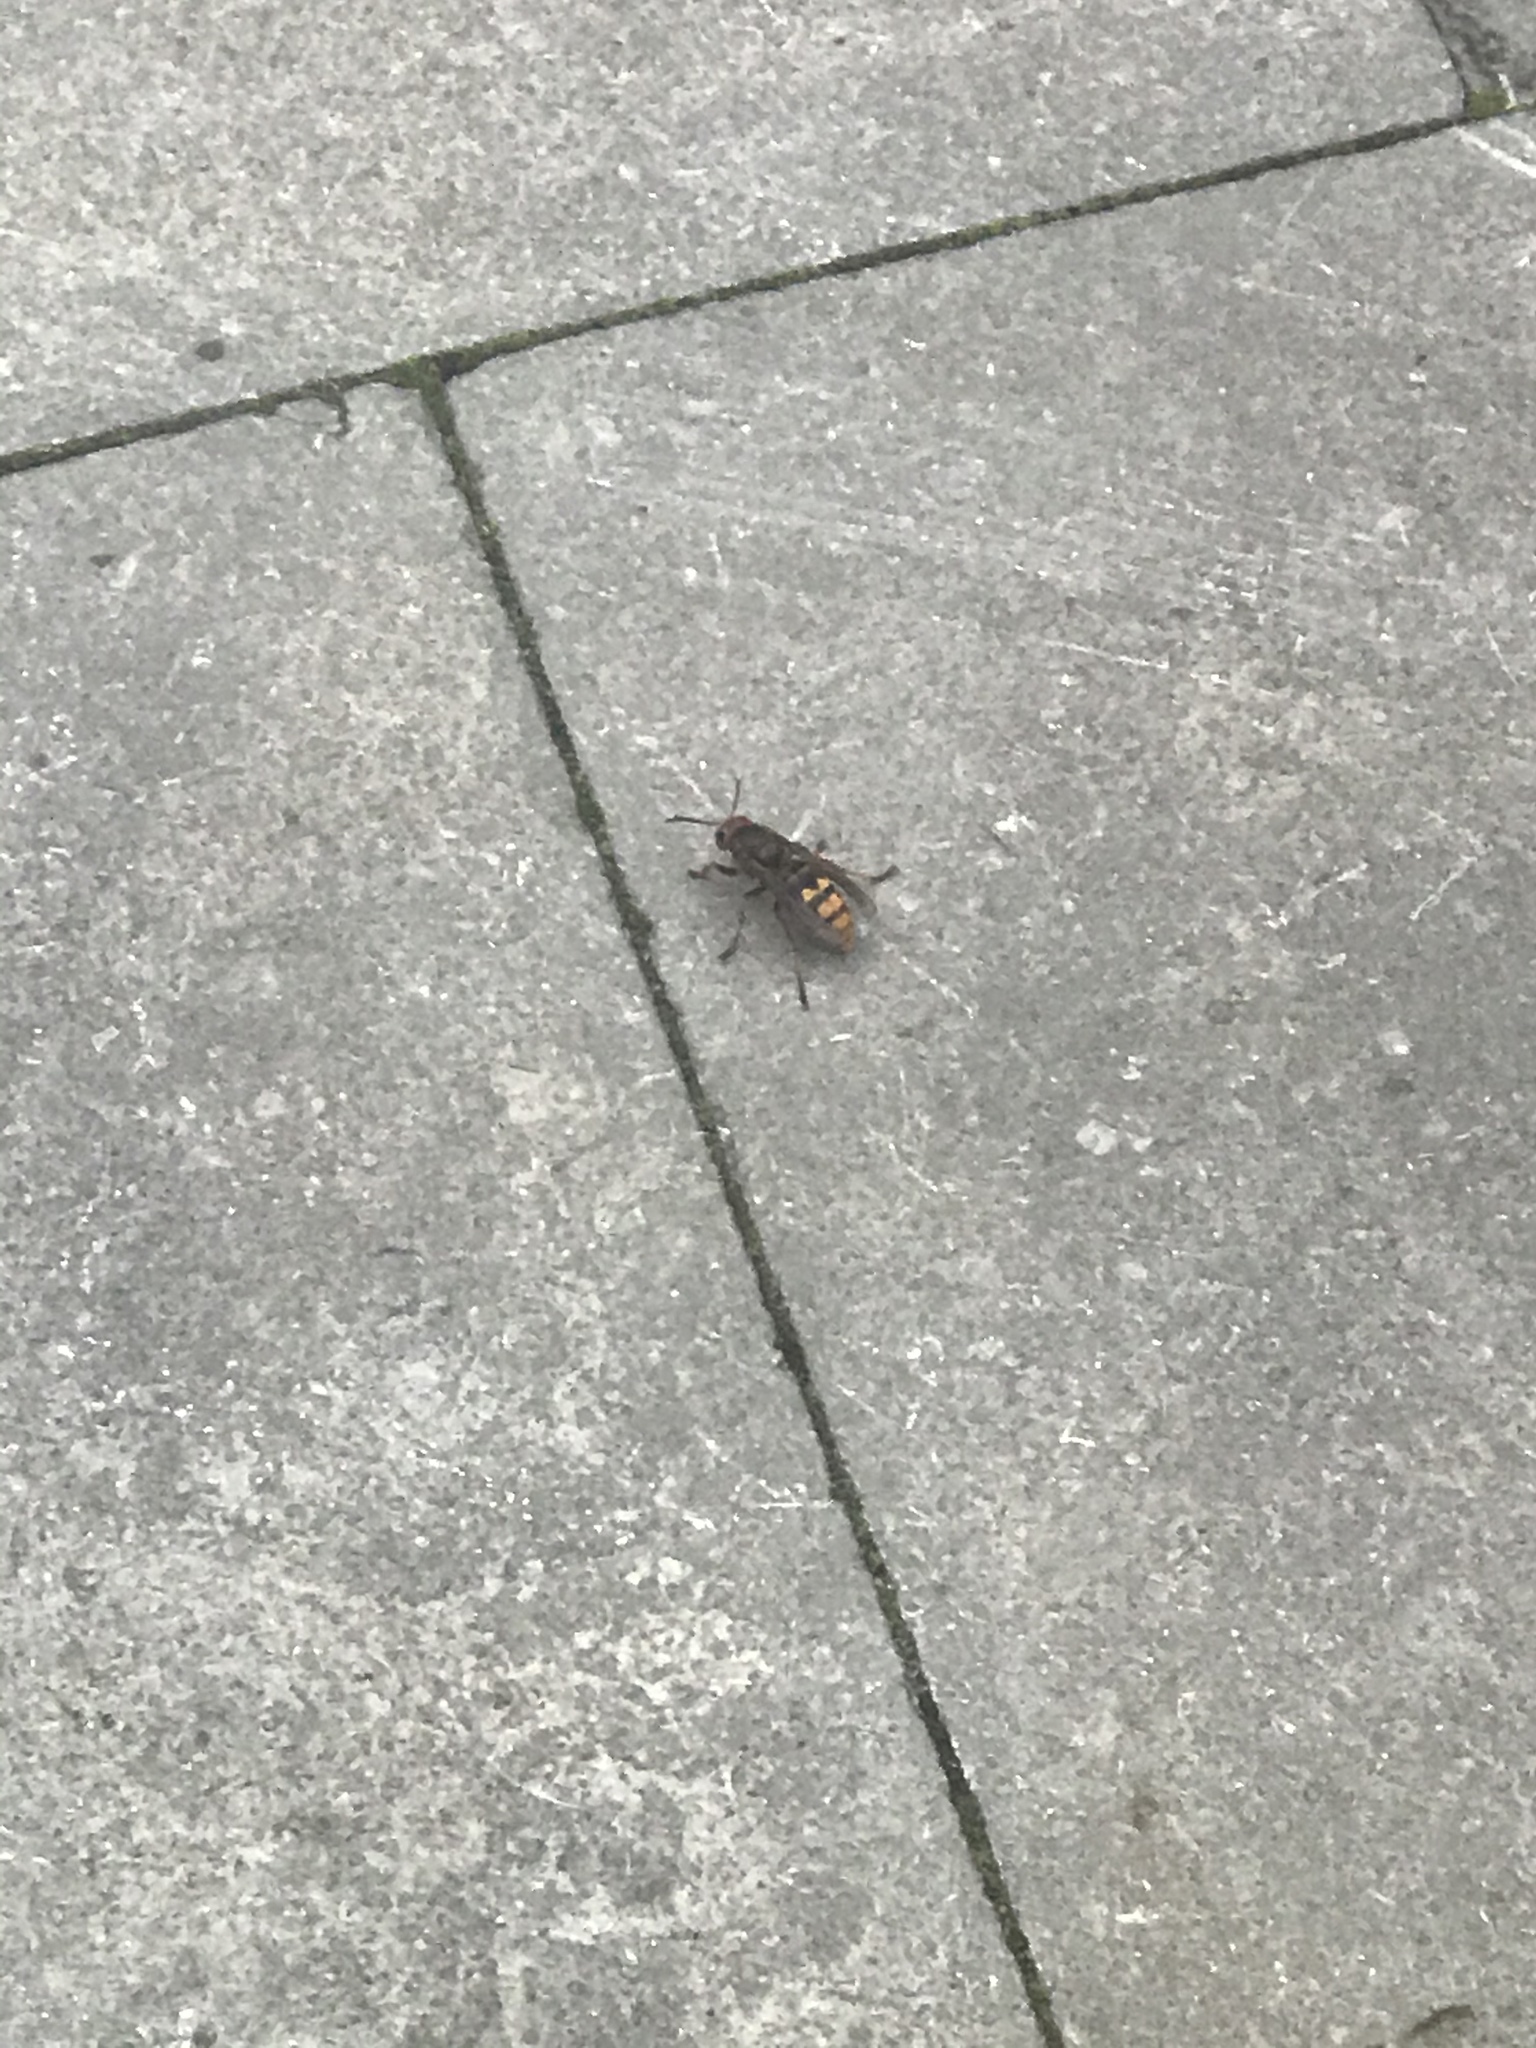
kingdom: Animalia
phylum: Arthropoda
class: Insecta
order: Hymenoptera
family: Vespidae
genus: Vespa
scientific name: Vespa crabro
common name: Hornet
